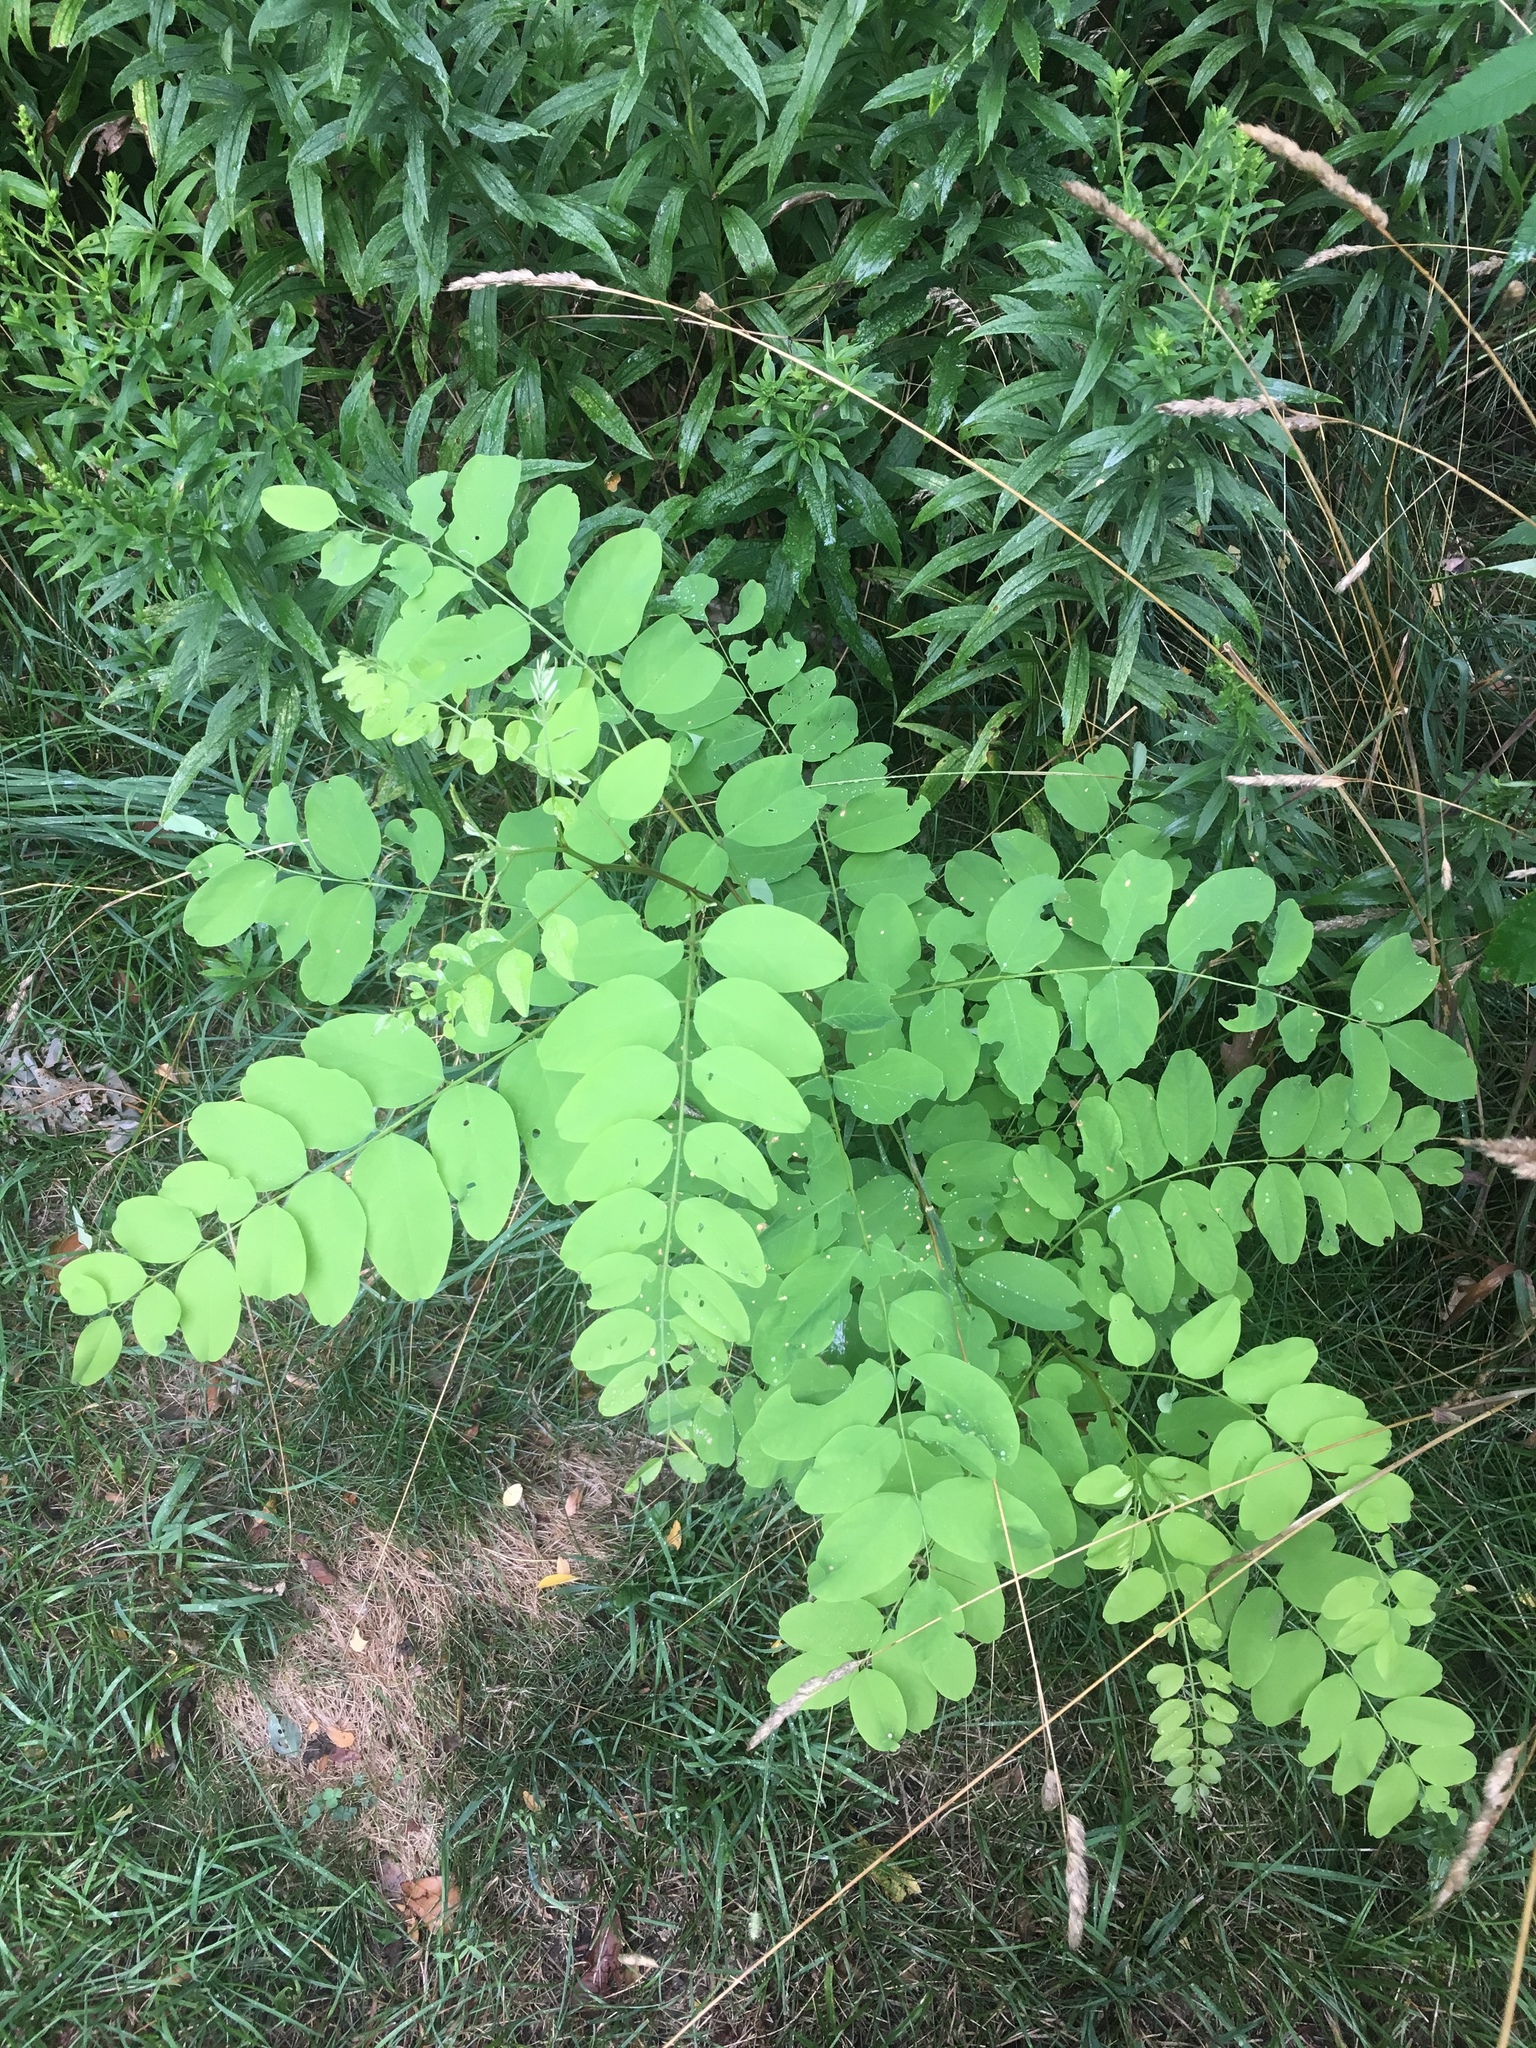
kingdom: Plantae
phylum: Tracheophyta
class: Magnoliopsida
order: Fabales
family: Fabaceae
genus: Robinia
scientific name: Robinia pseudoacacia
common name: Black locust
